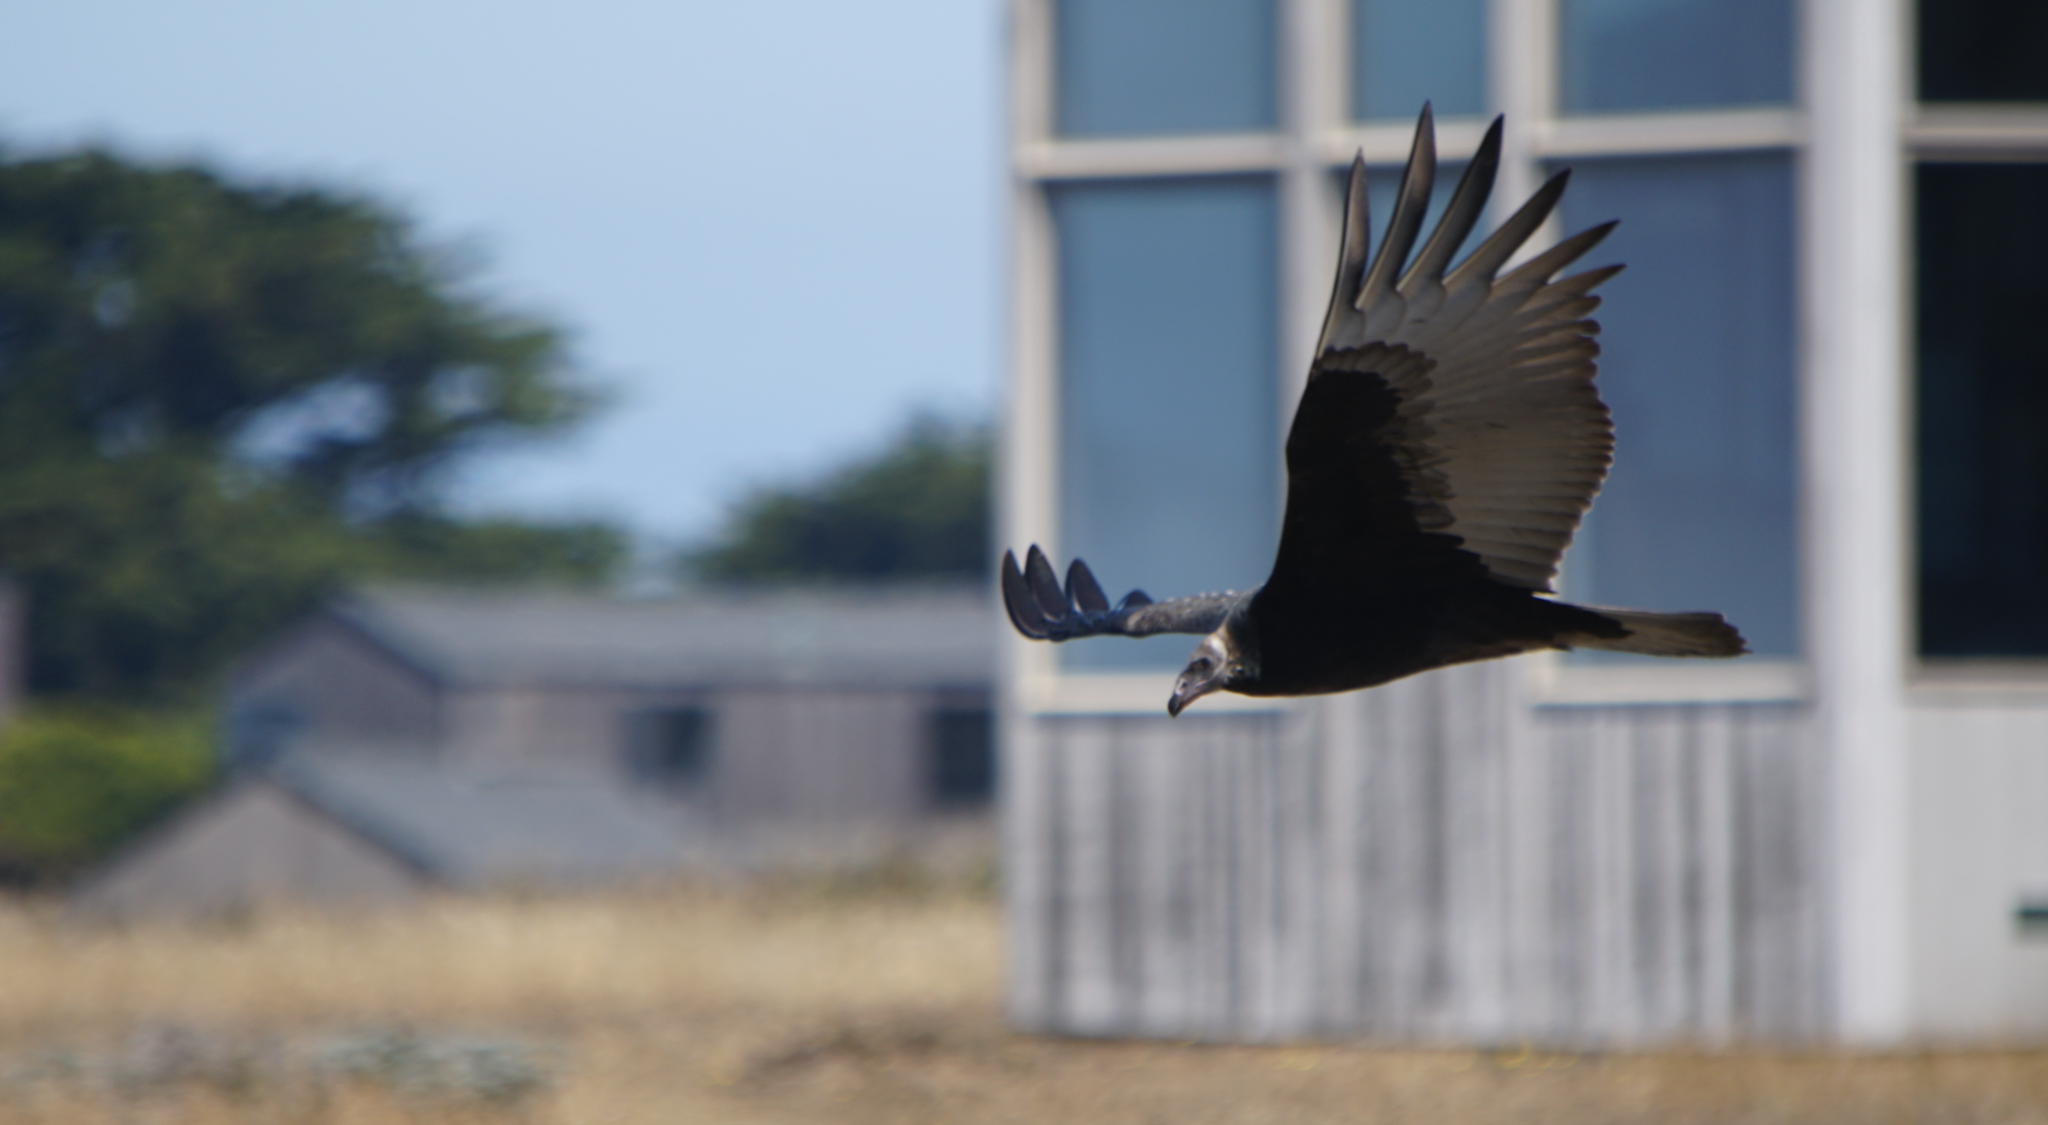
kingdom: Animalia
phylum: Chordata
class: Aves
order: Accipitriformes
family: Cathartidae
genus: Cathartes
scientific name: Cathartes aura
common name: Turkey vulture
